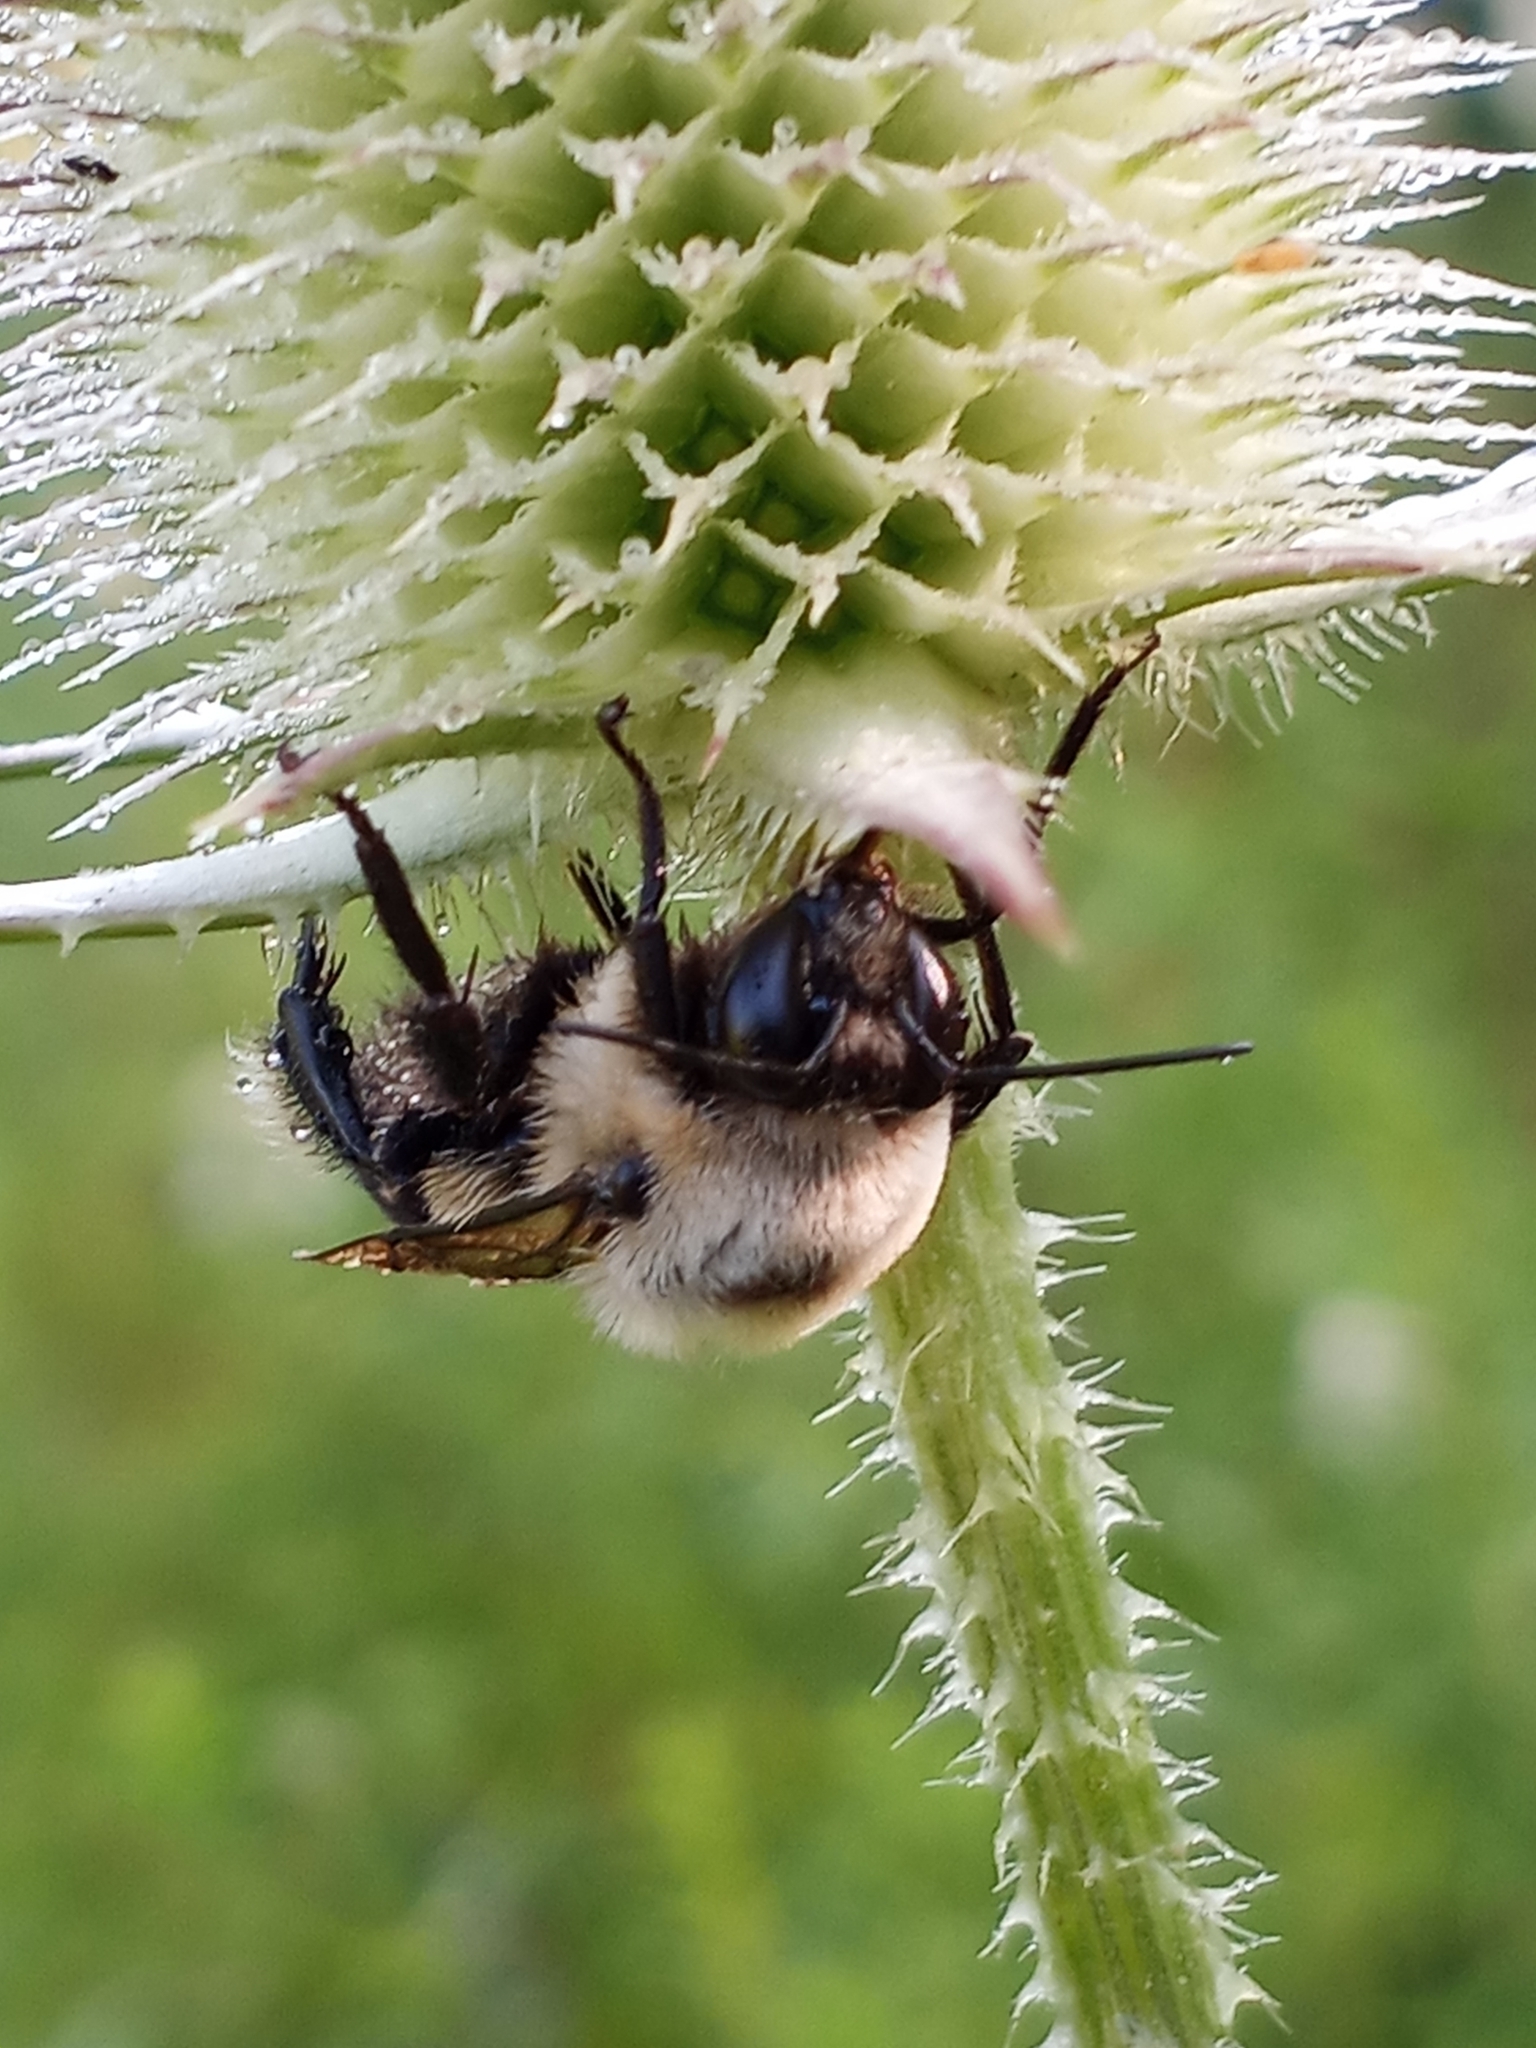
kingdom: Animalia
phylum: Arthropoda
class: Insecta
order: Hymenoptera
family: Apidae
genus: Bombus
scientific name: Bombus griseocollis
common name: Brown-belted bumble bee
